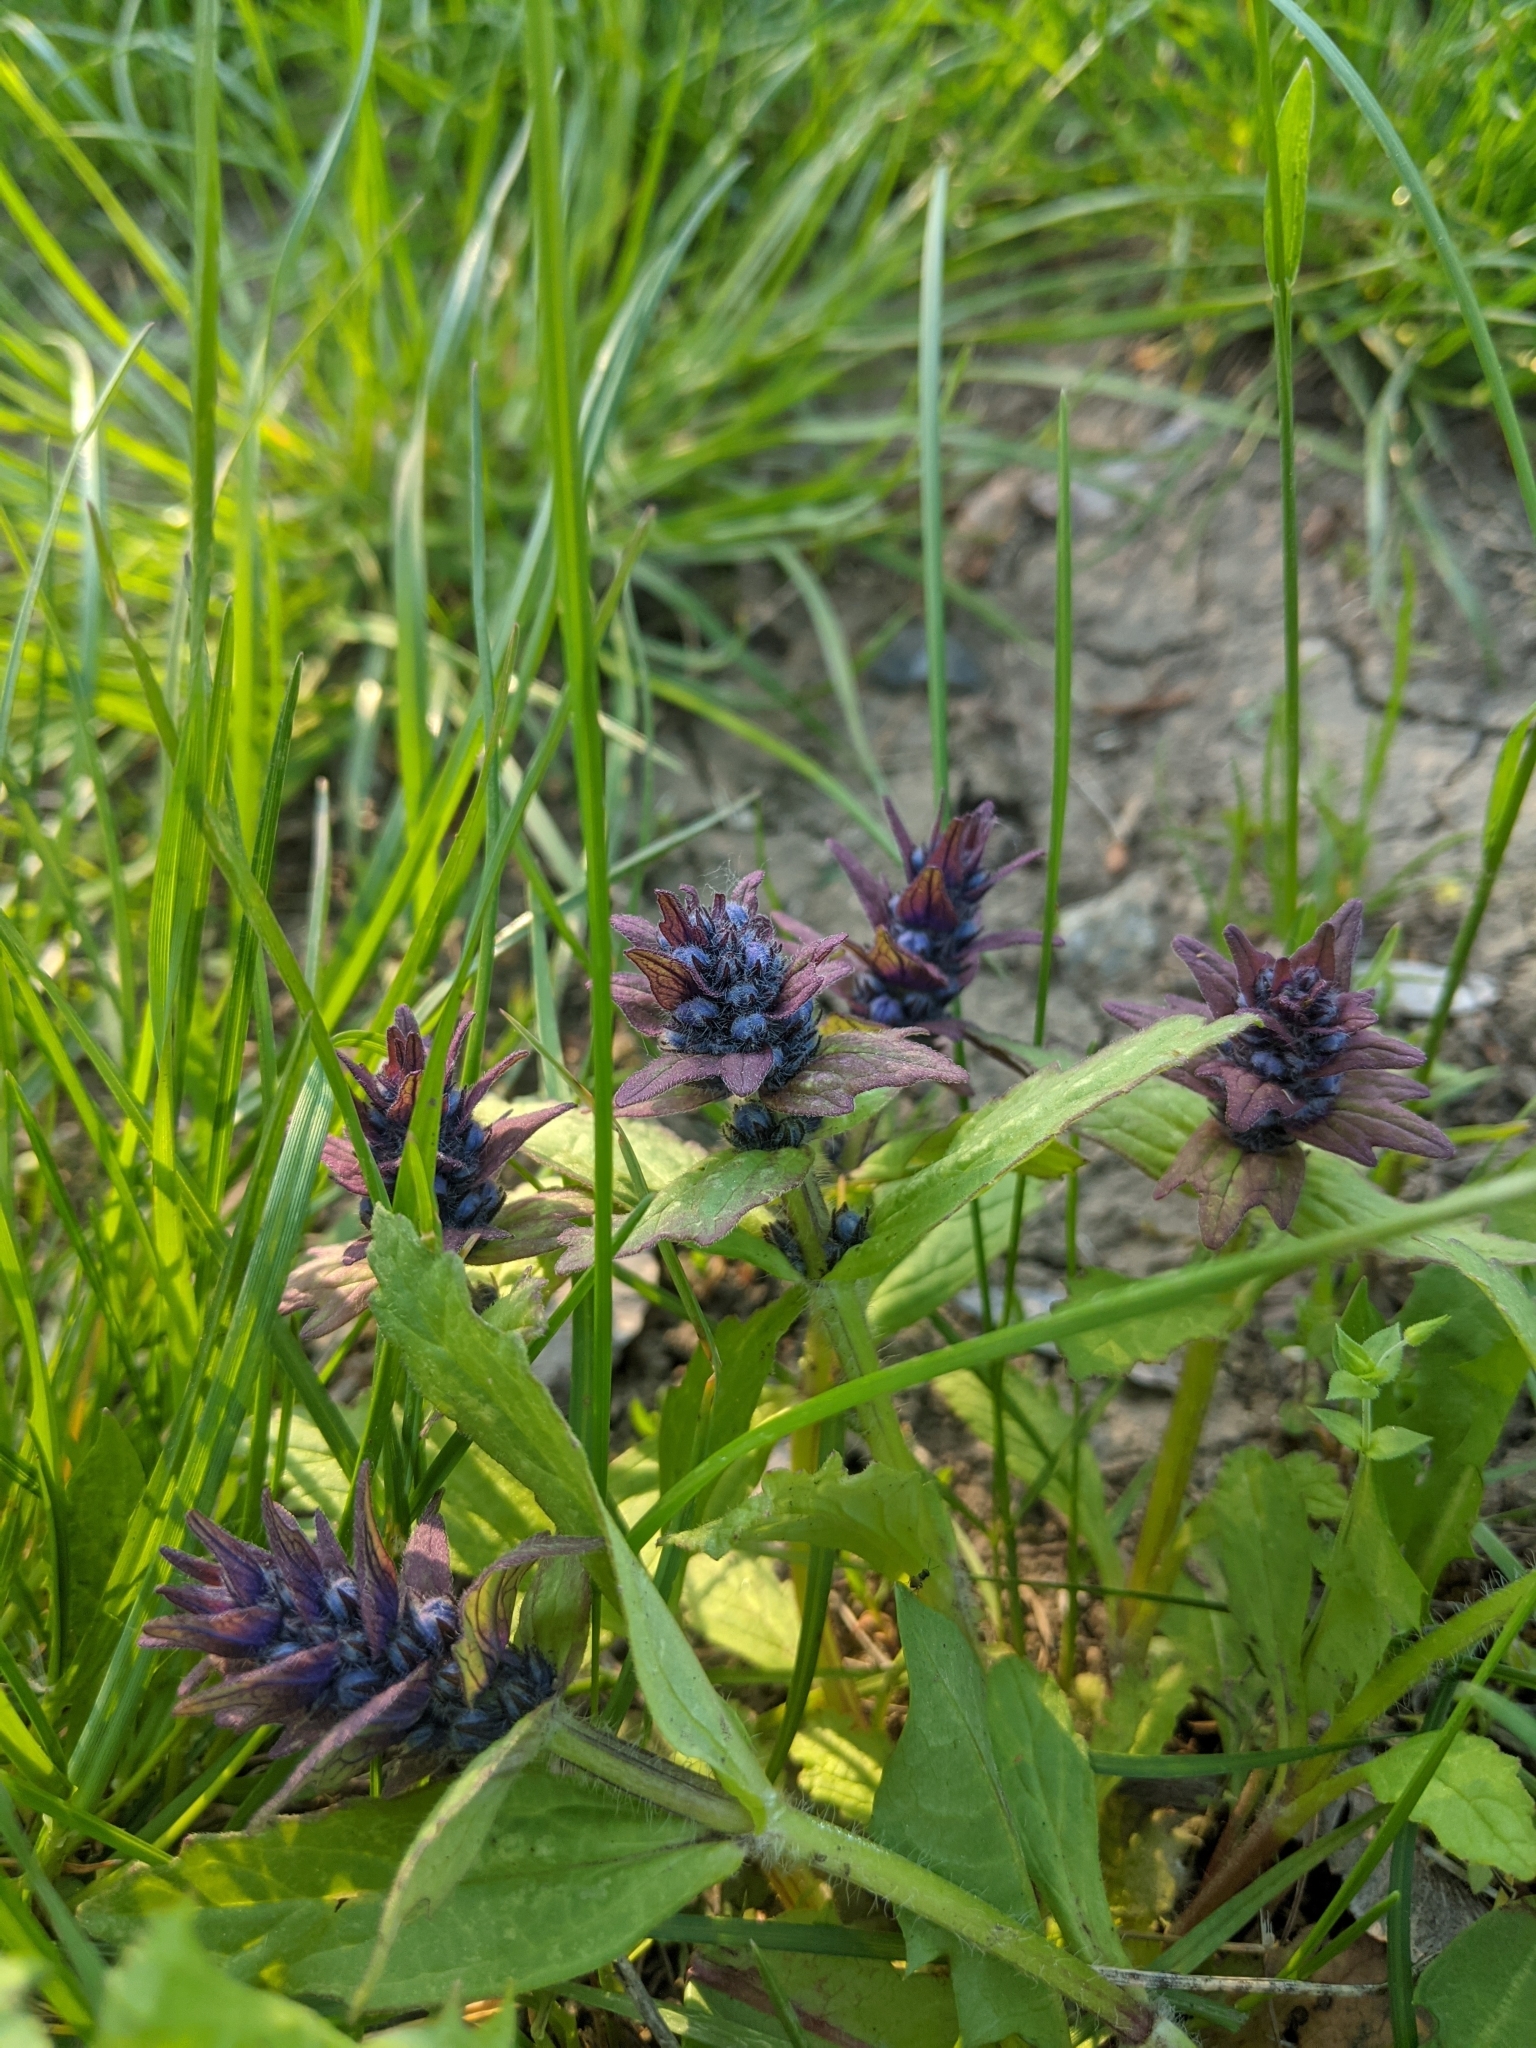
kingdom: Plantae
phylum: Tracheophyta
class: Magnoliopsida
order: Lamiales
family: Lamiaceae
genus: Ajuga
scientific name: Ajuga genevensis
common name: Blue bugle
